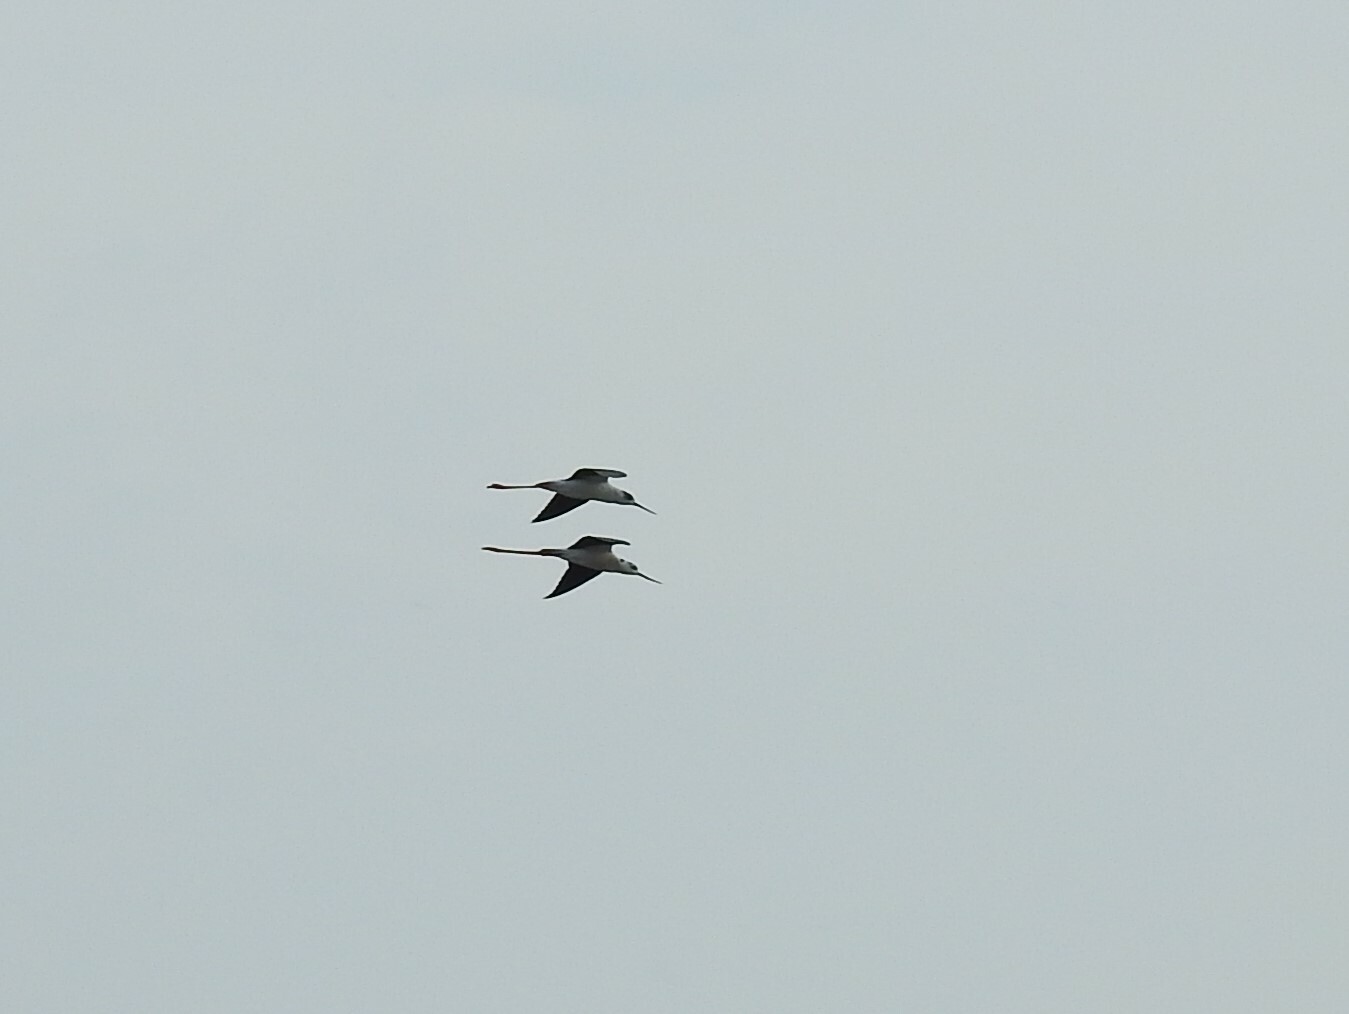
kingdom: Animalia
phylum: Chordata
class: Aves
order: Charadriiformes
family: Recurvirostridae
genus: Himantopus
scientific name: Himantopus himantopus
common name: Black-winged stilt
